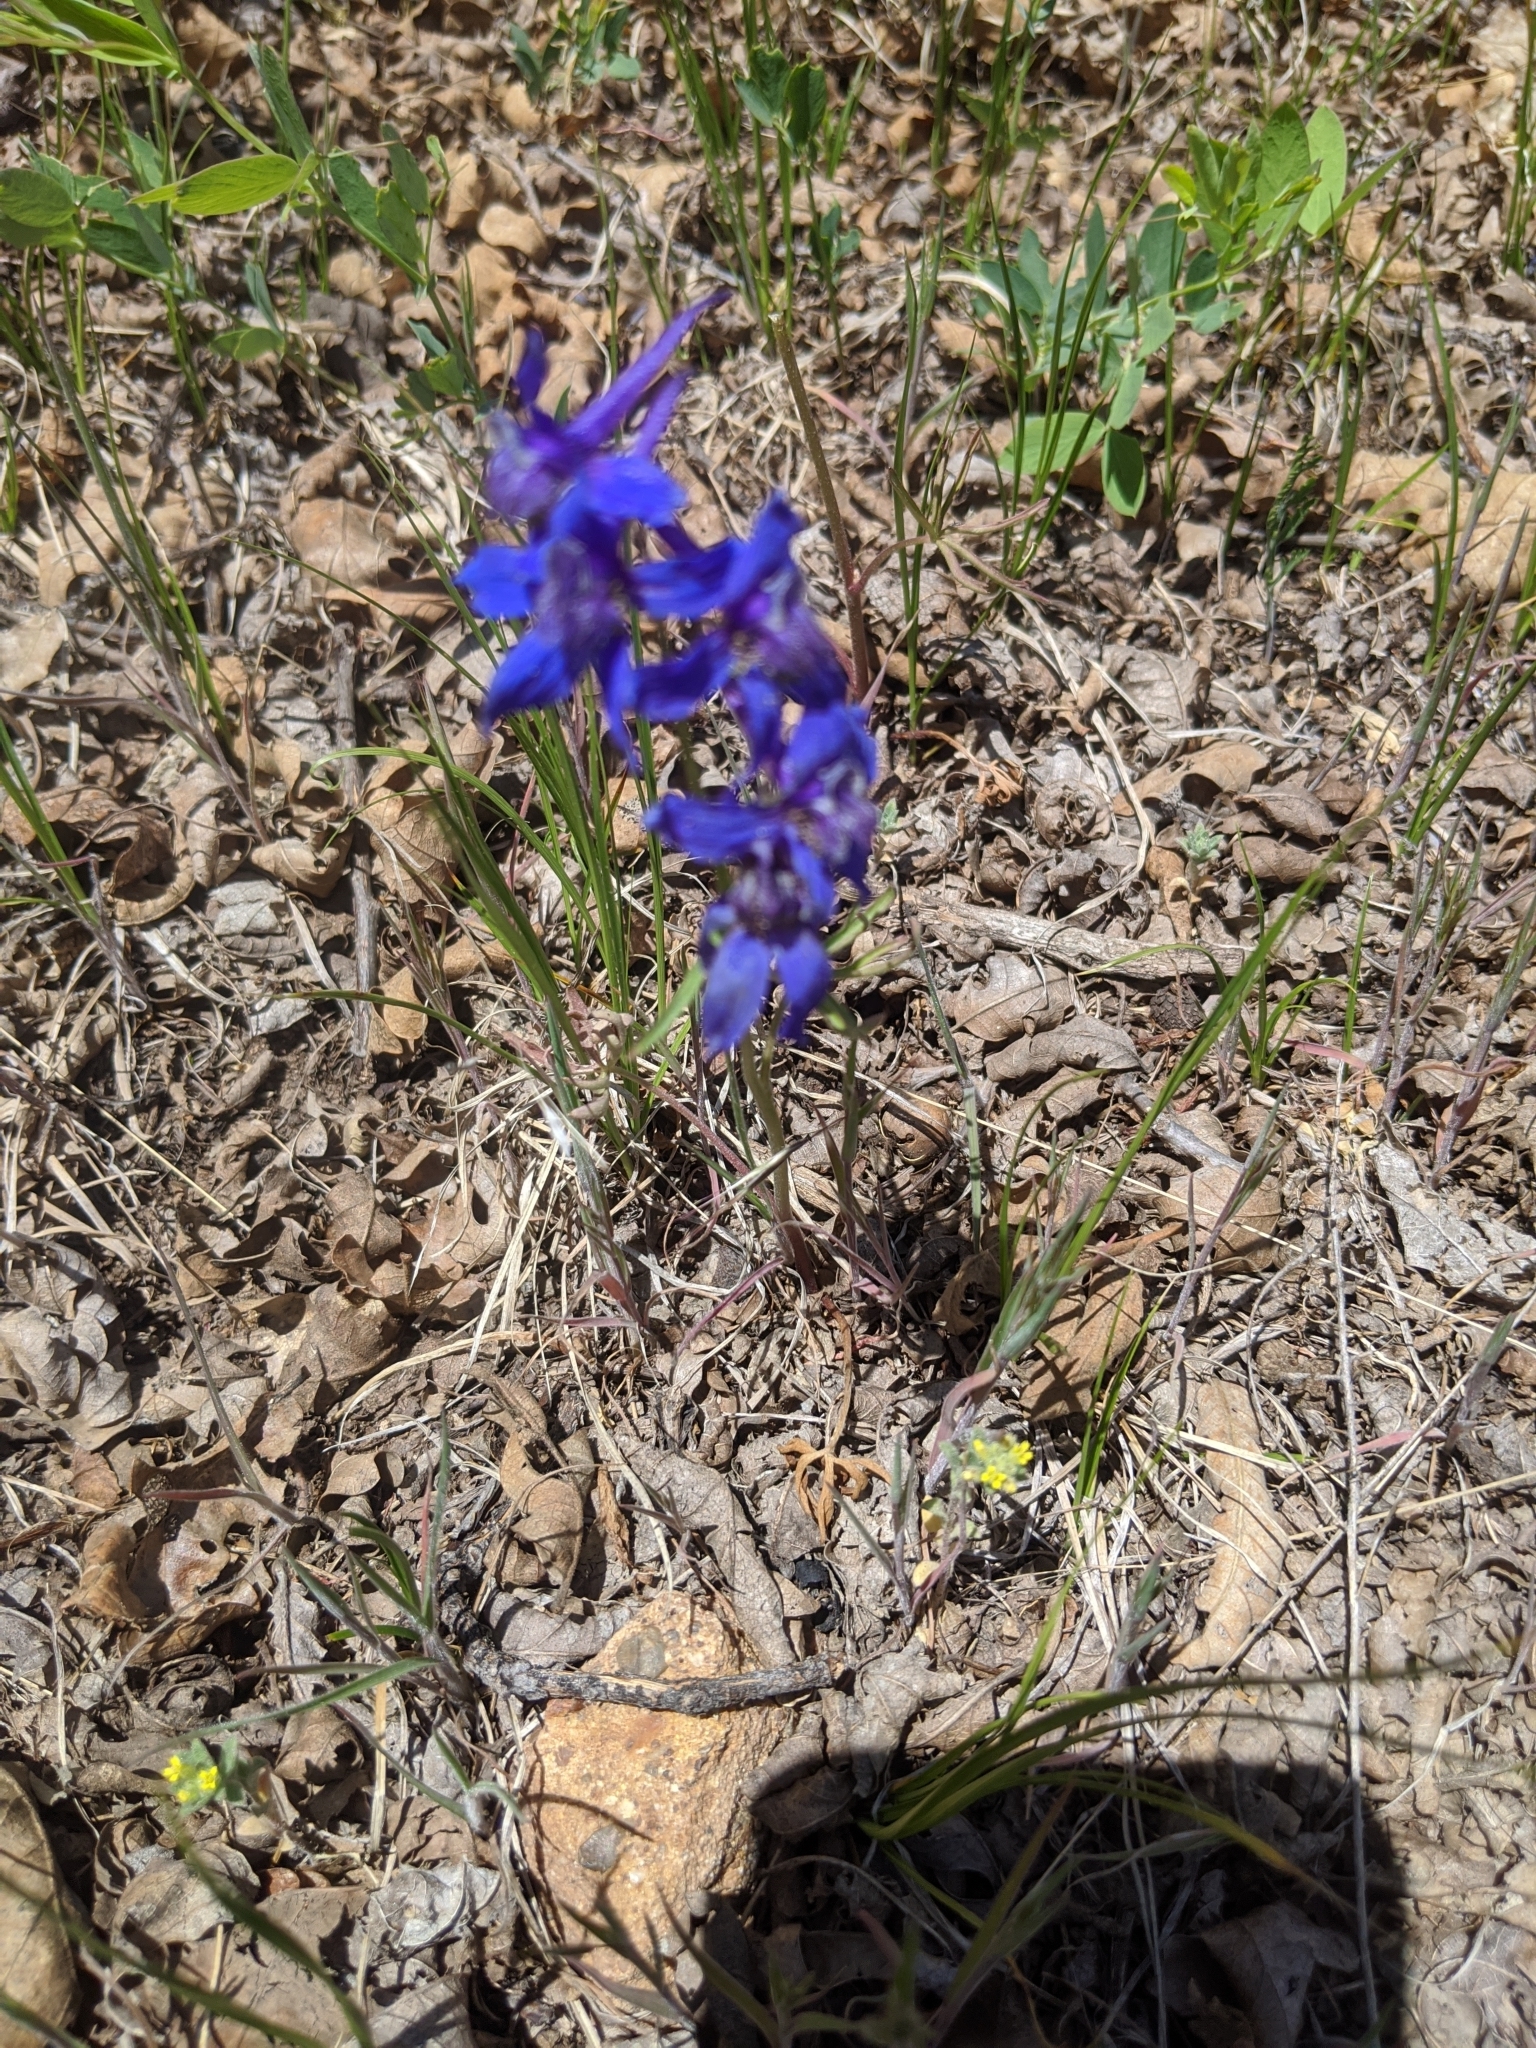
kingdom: Plantae
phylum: Tracheophyta
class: Magnoliopsida
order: Ranunculales
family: Ranunculaceae
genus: Delphinium
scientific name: Delphinium nuttallianum
